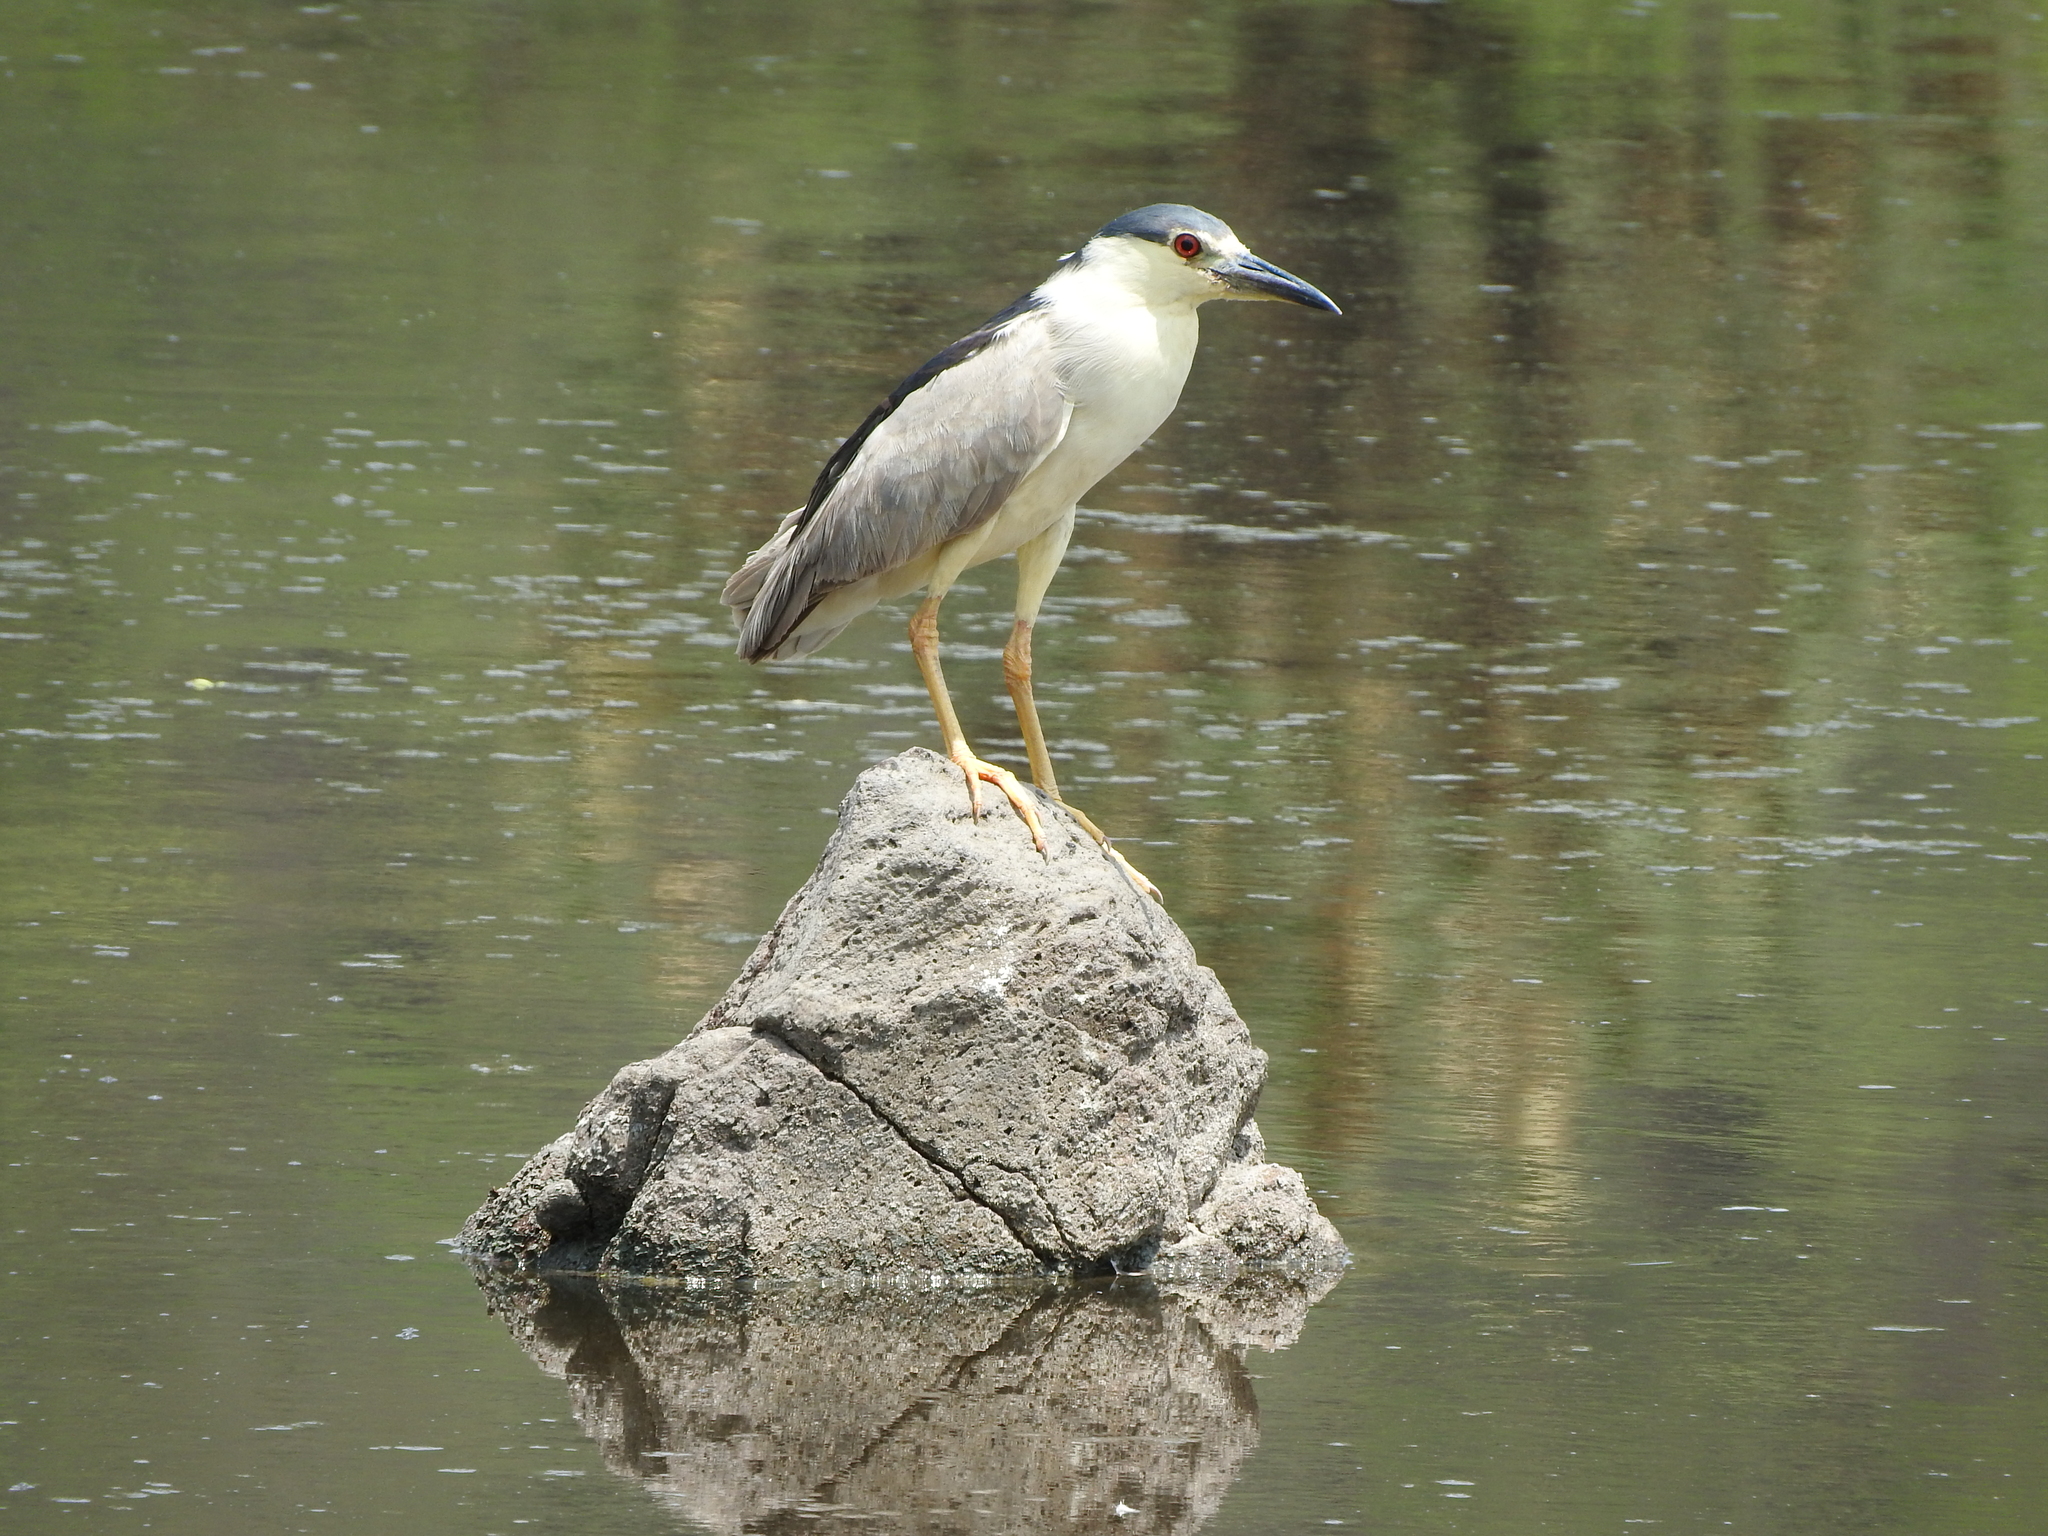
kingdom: Animalia
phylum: Chordata
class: Aves
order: Pelecaniformes
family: Ardeidae
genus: Nycticorax
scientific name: Nycticorax nycticorax
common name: Black-crowned night heron
